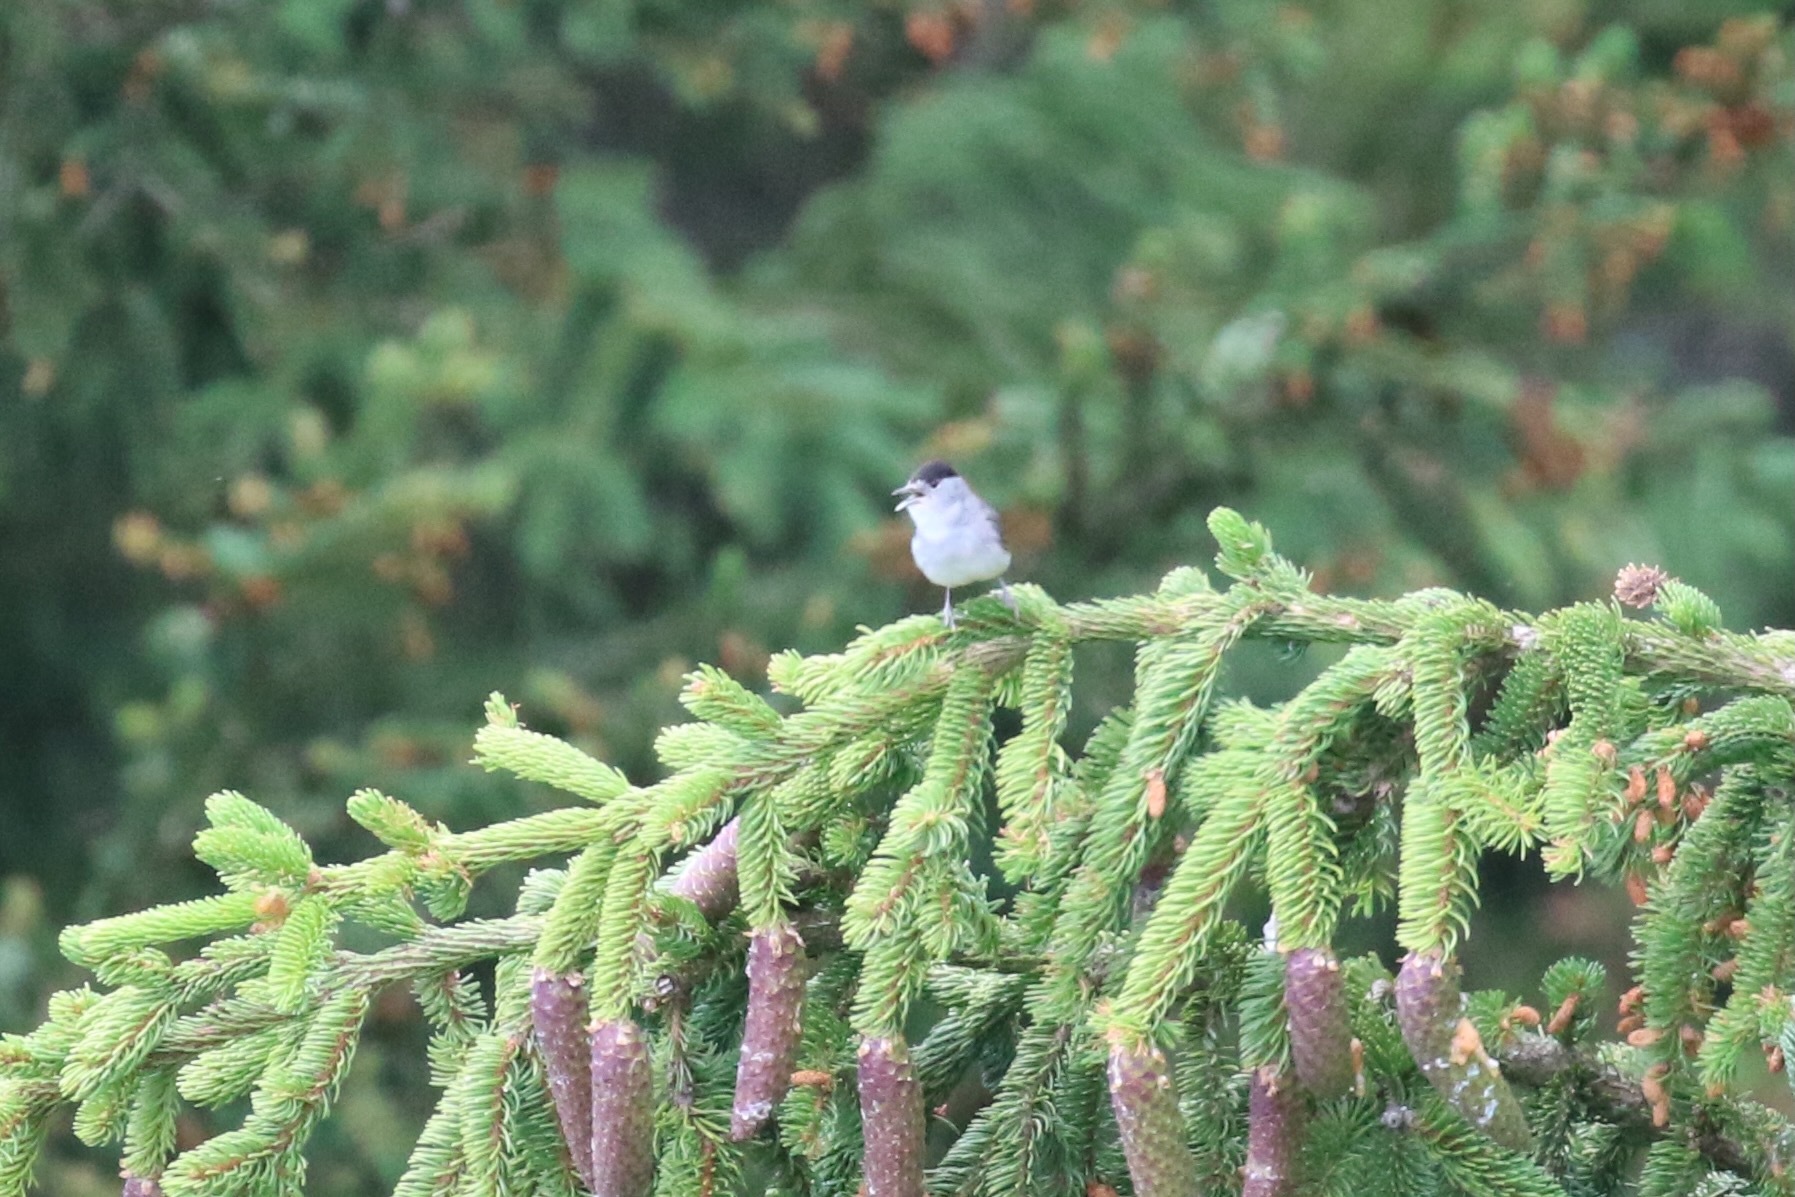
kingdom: Animalia
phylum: Chordata
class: Aves
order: Passeriformes
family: Sylviidae
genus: Sylvia
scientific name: Sylvia atricapilla
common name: Eurasian blackcap
